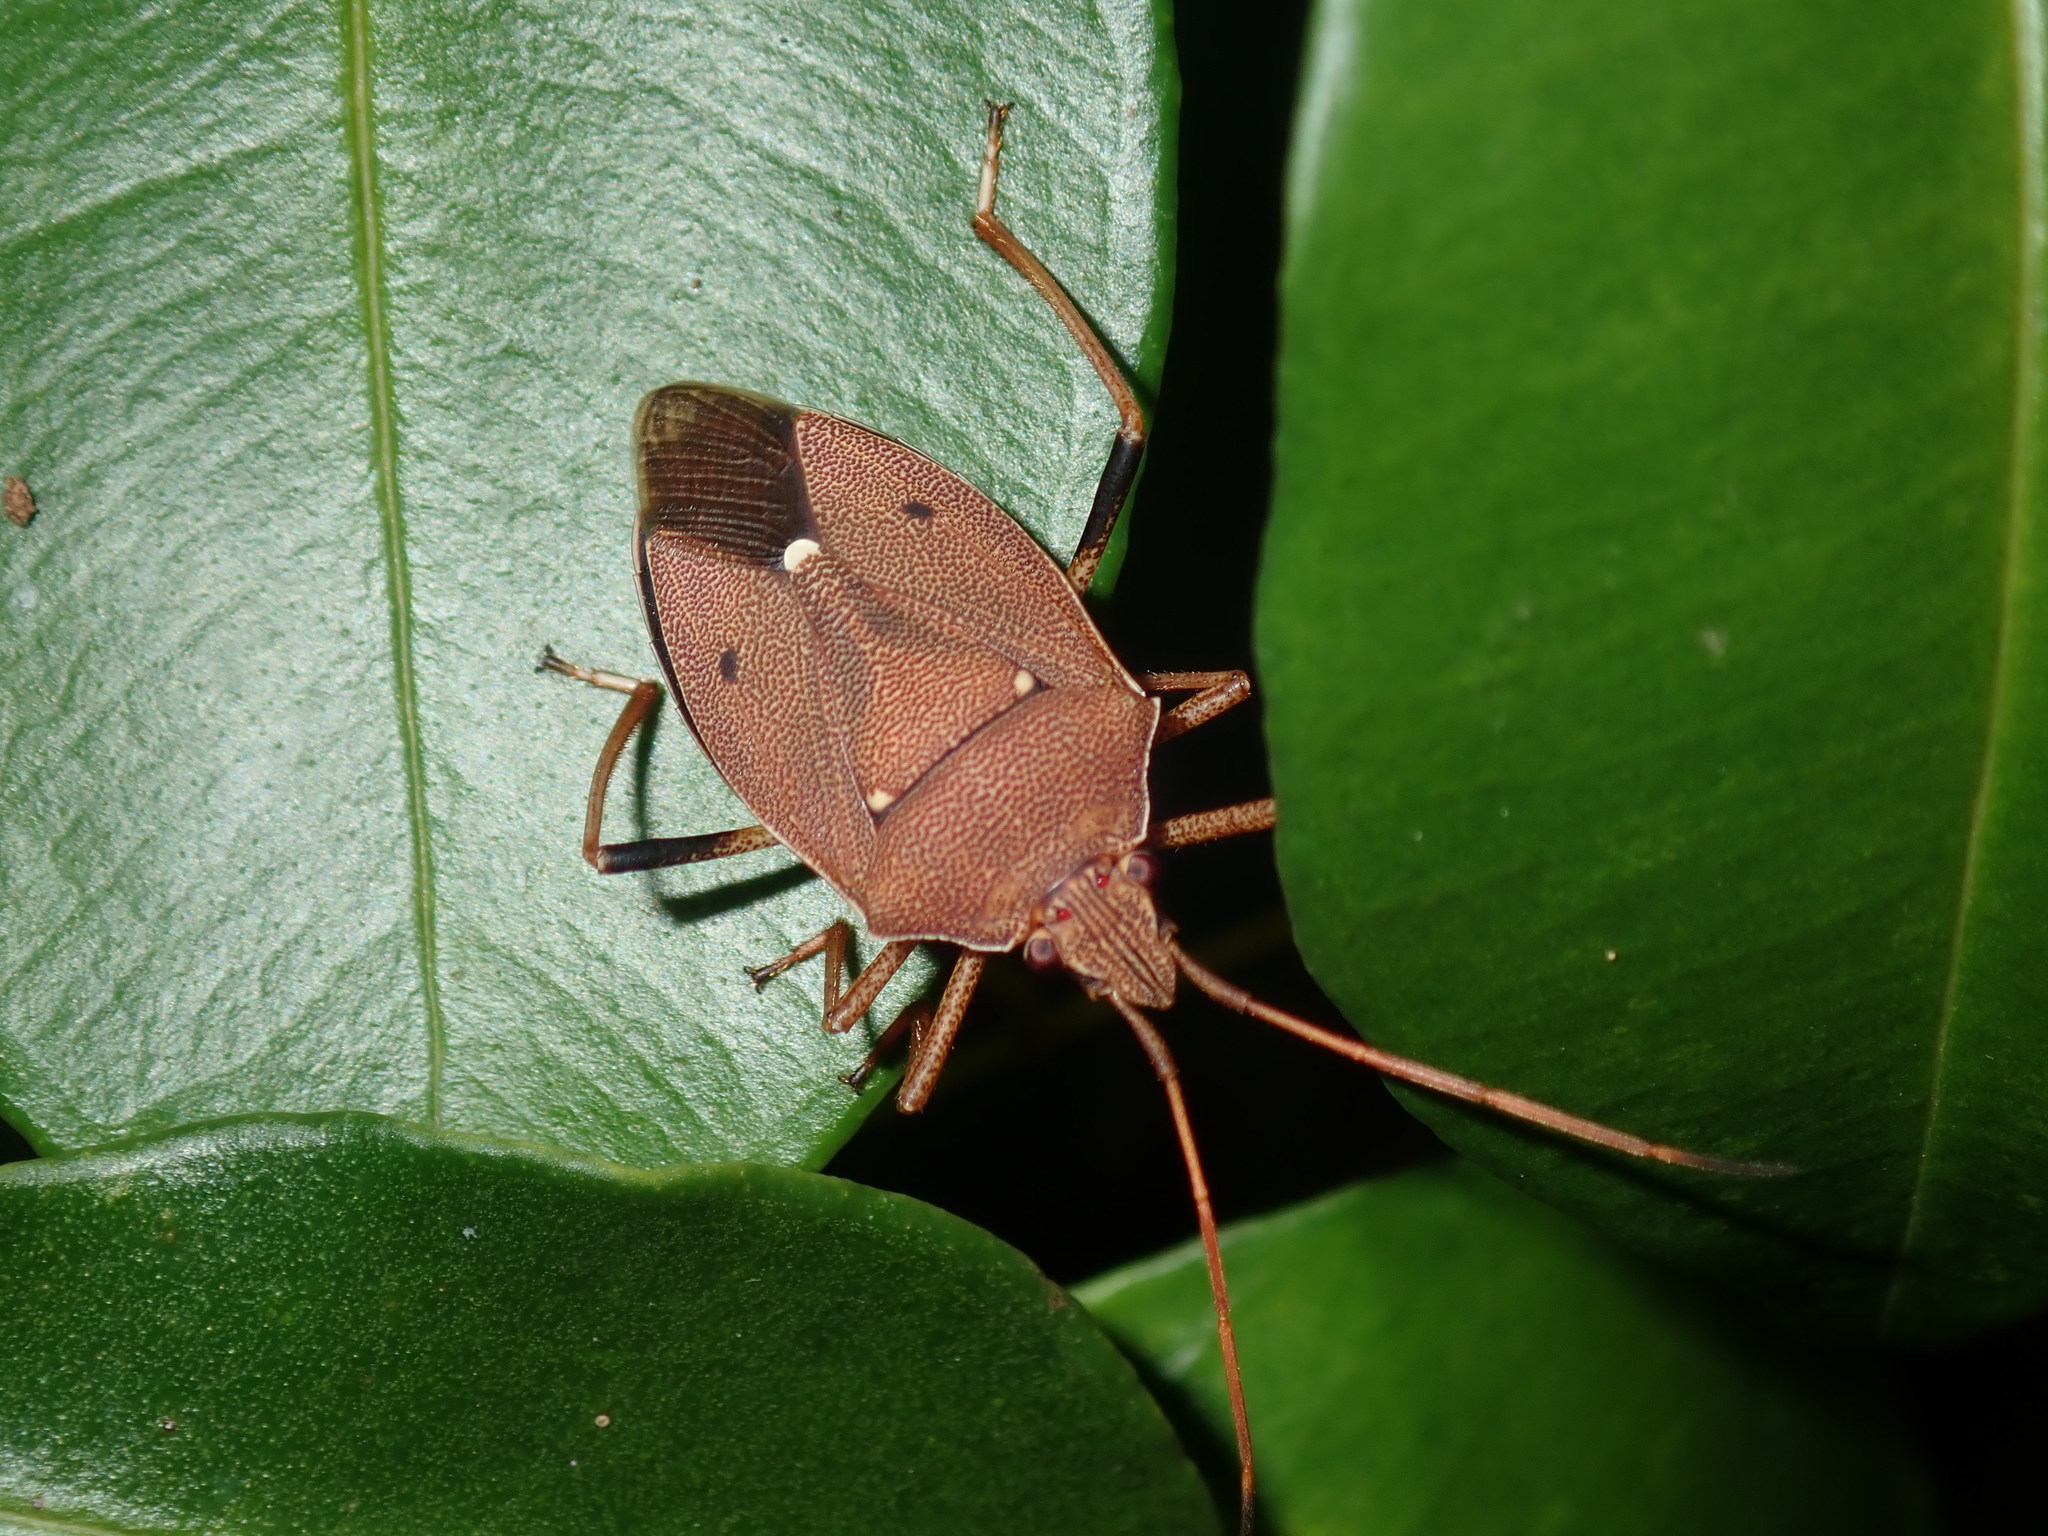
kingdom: Animalia
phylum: Arthropoda
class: Insecta
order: Hemiptera
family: Pentatomidae
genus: Poecilometis
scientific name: Poecilometis
